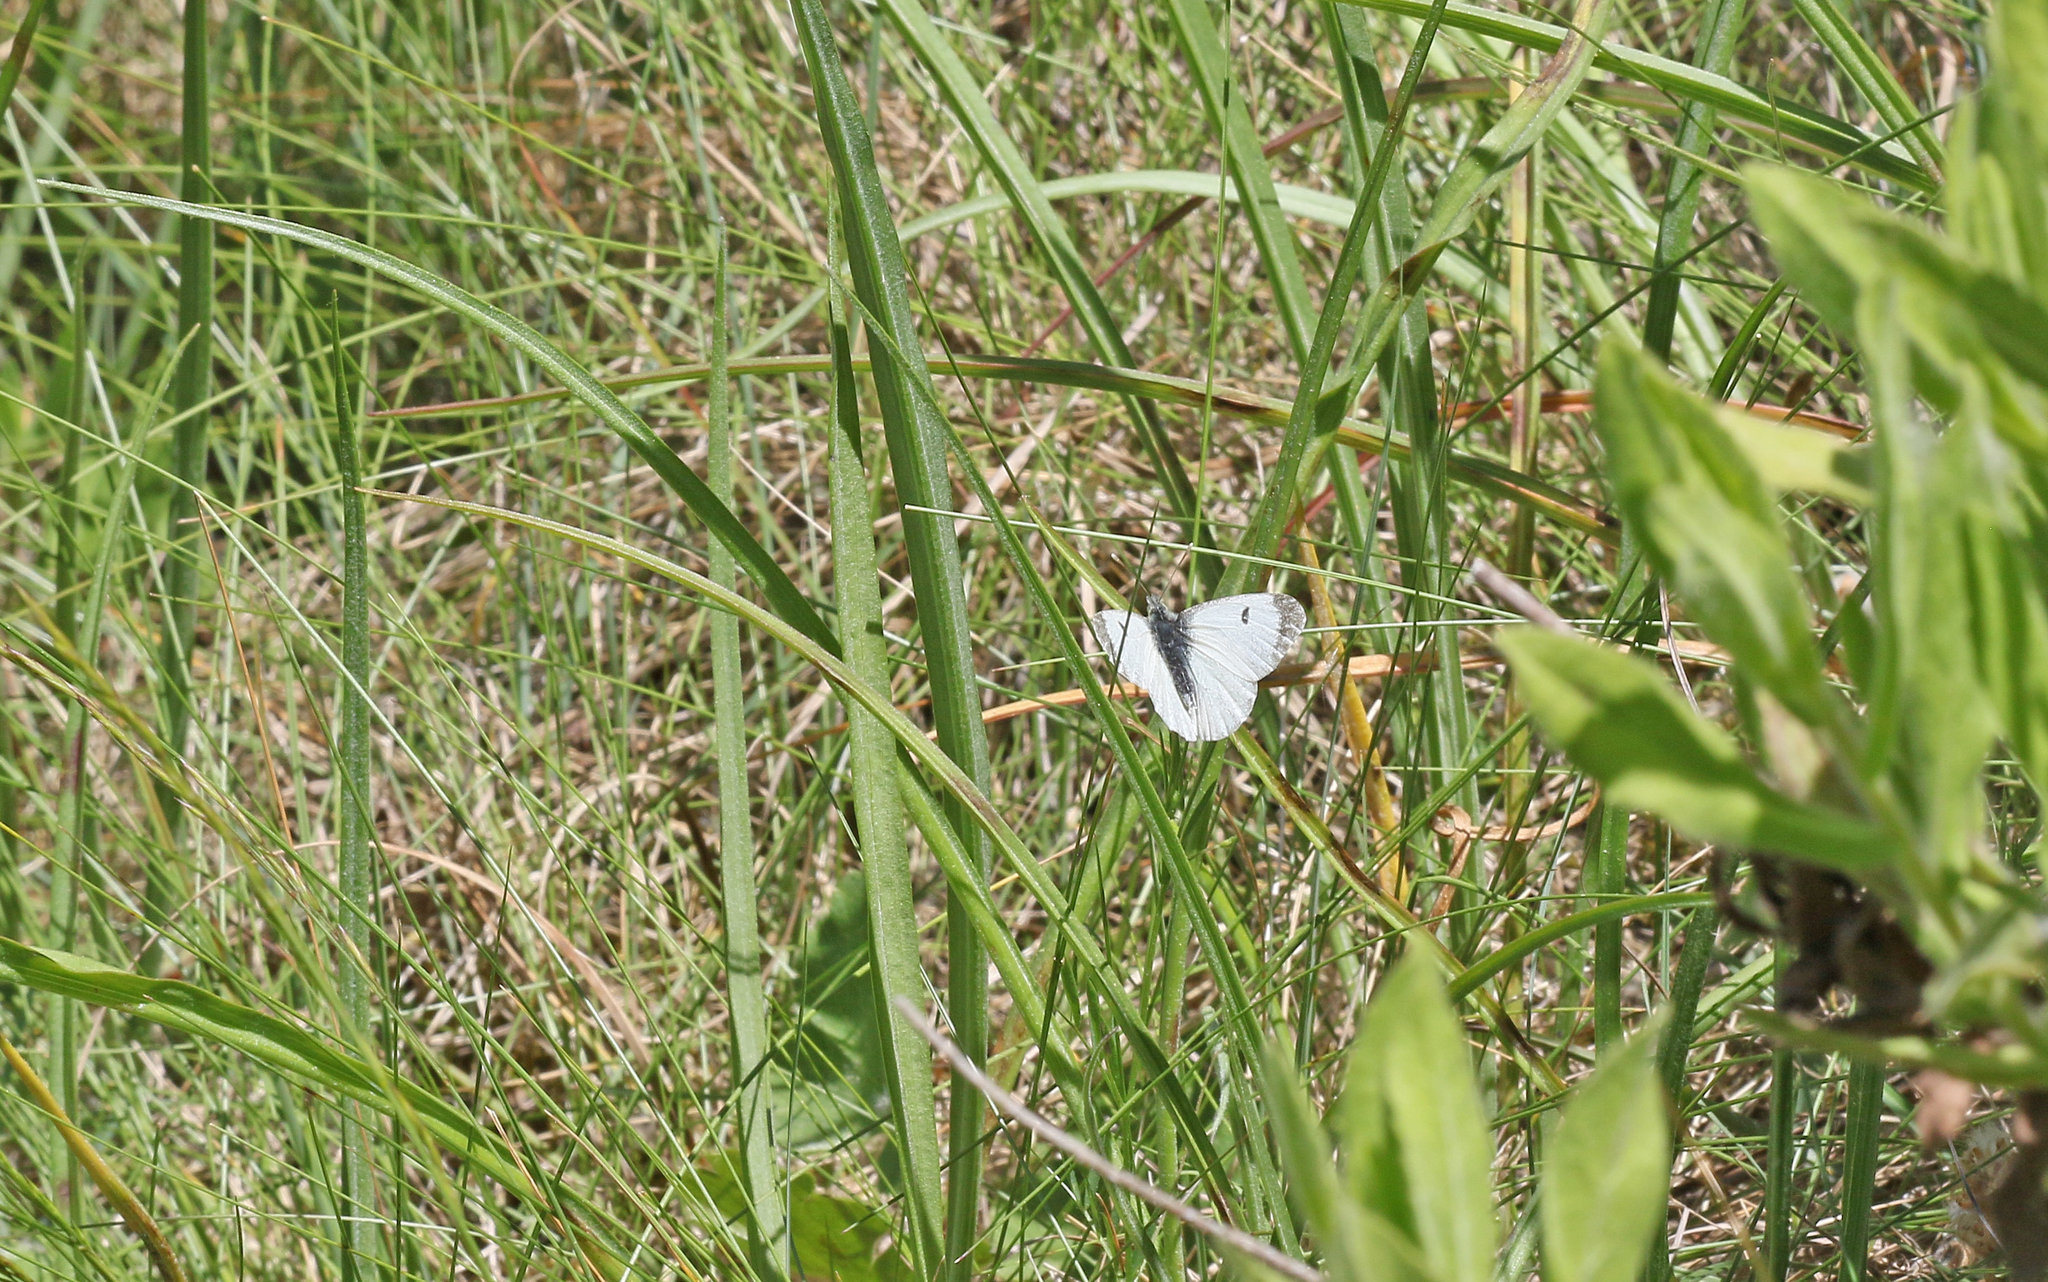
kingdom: Animalia
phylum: Arthropoda
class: Insecta
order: Lepidoptera
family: Pieridae
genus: Anthocharis
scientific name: Anthocharis cardamines
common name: Orange-tip
